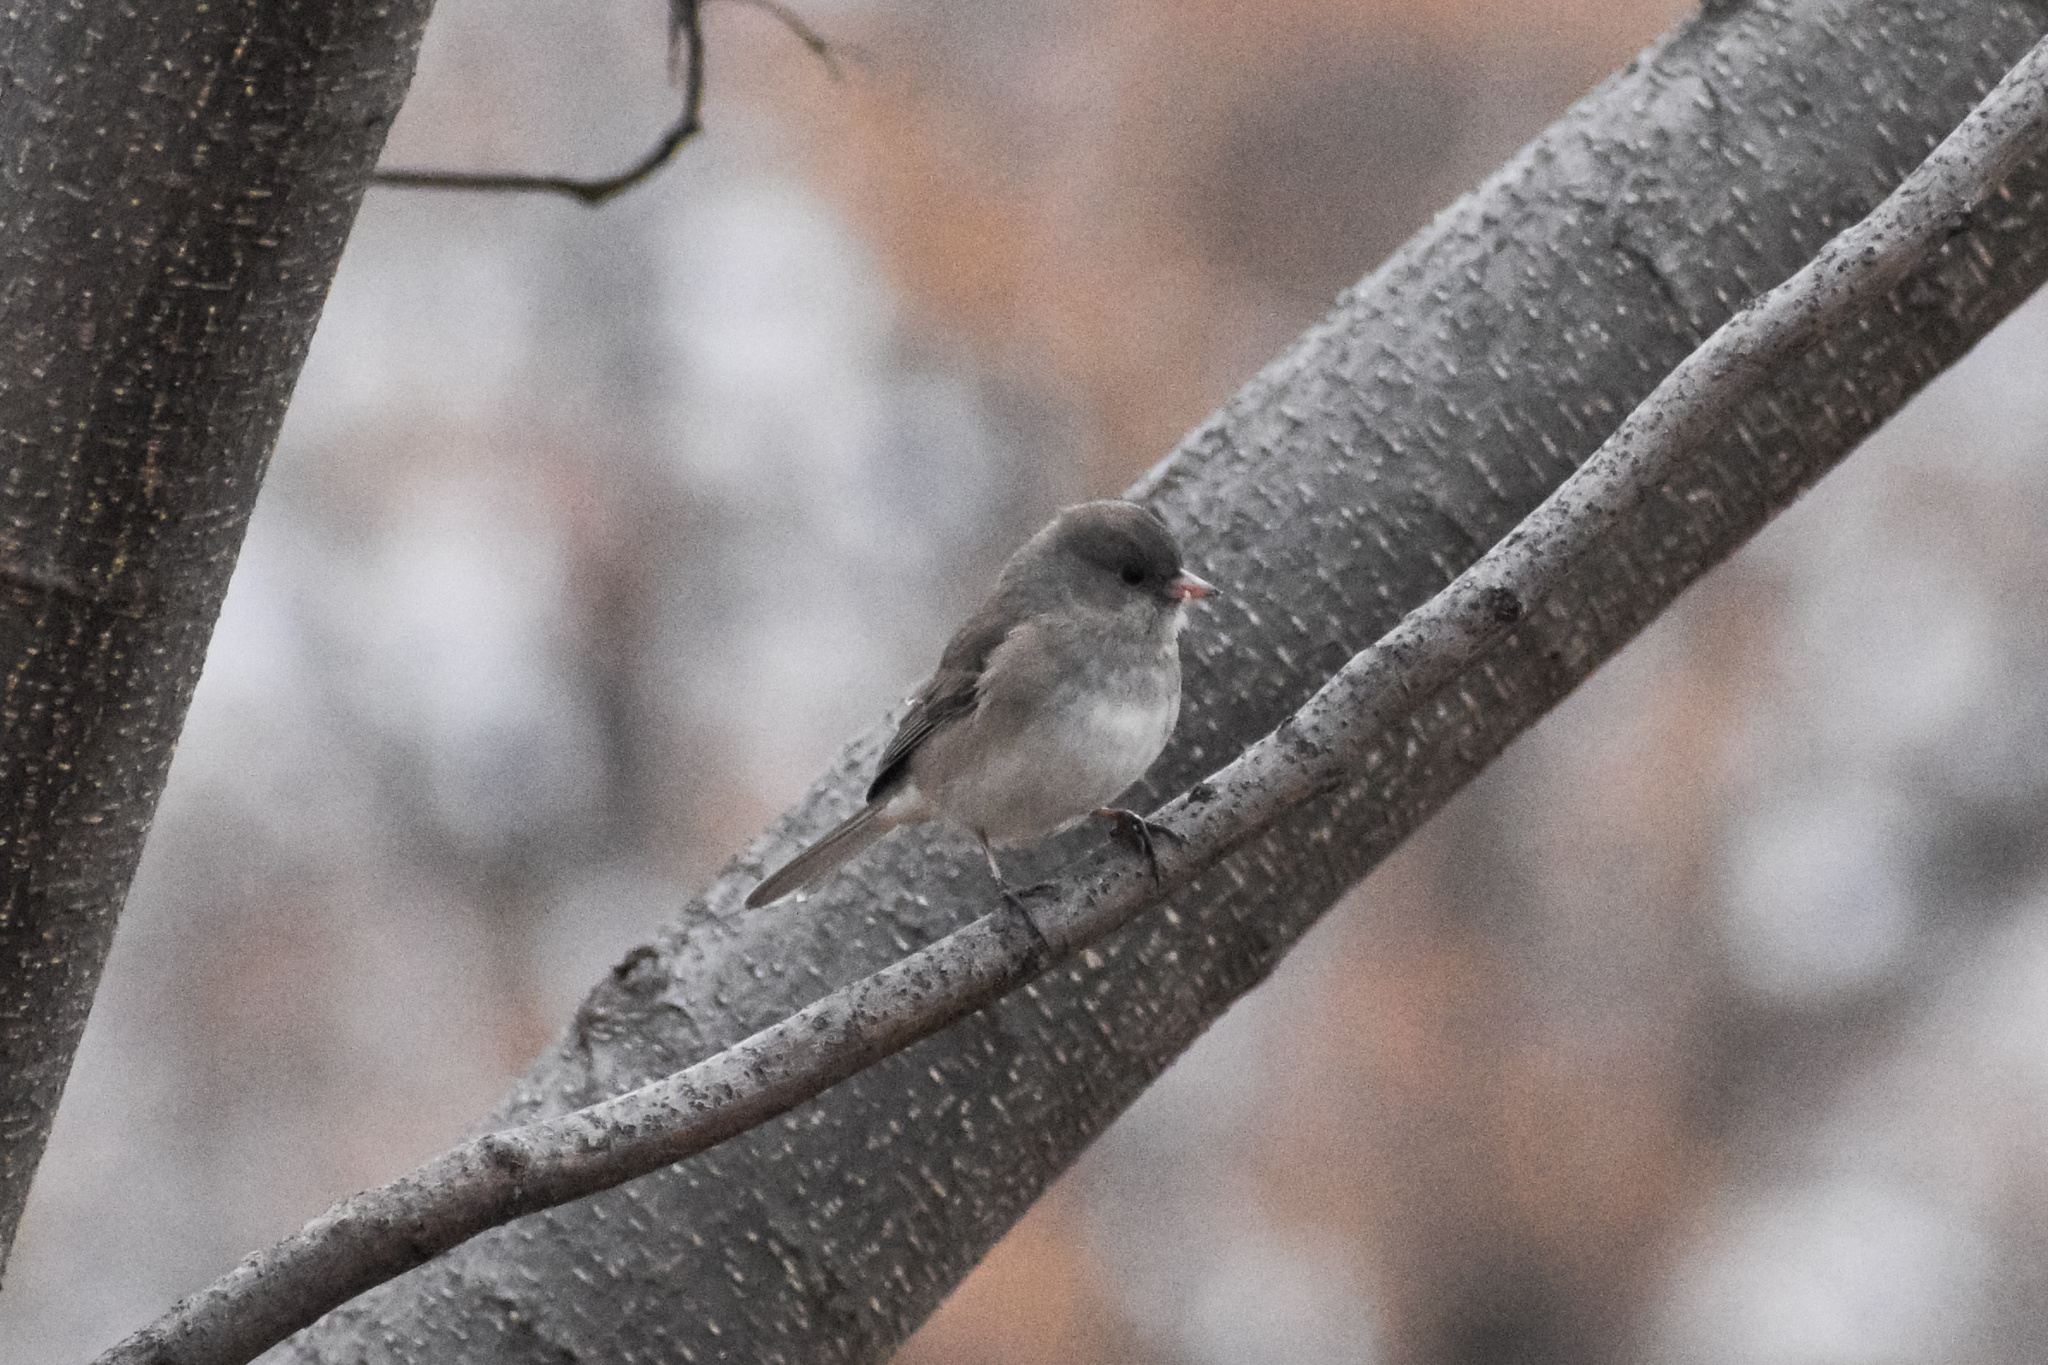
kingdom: Animalia
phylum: Chordata
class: Aves
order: Passeriformes
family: Passerellidae
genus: Junco
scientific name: Junco hyemalis
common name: Dark-eyed junco
